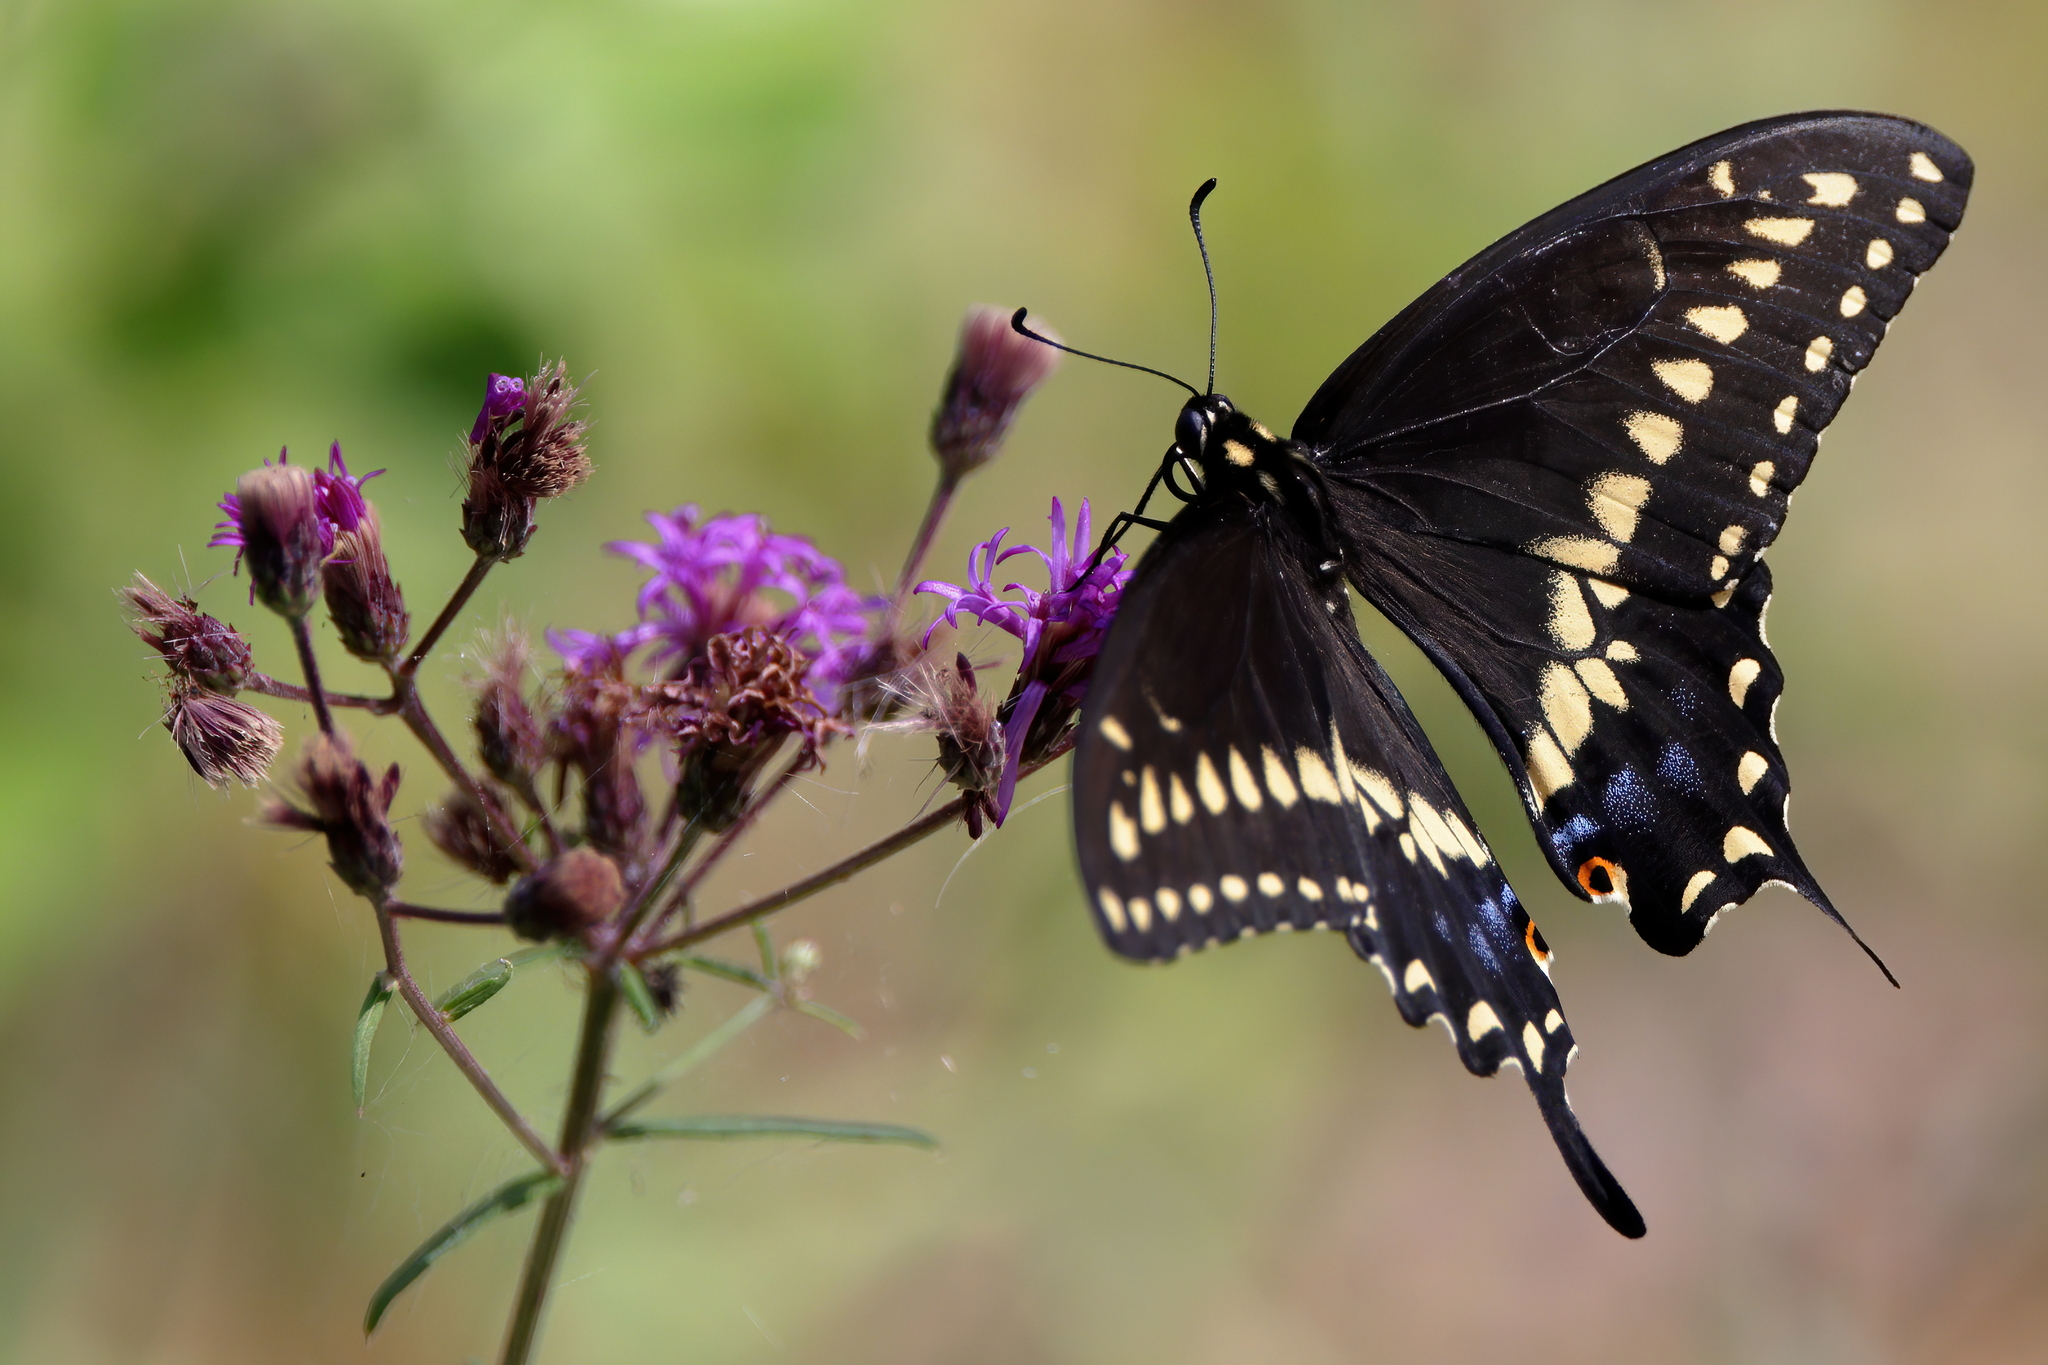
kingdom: Animalia
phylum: Arthropoda
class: Insecta
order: Lepidoptera
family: Papilionidae
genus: Papilio
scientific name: Papilio polyxenes
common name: Black swallowtail
